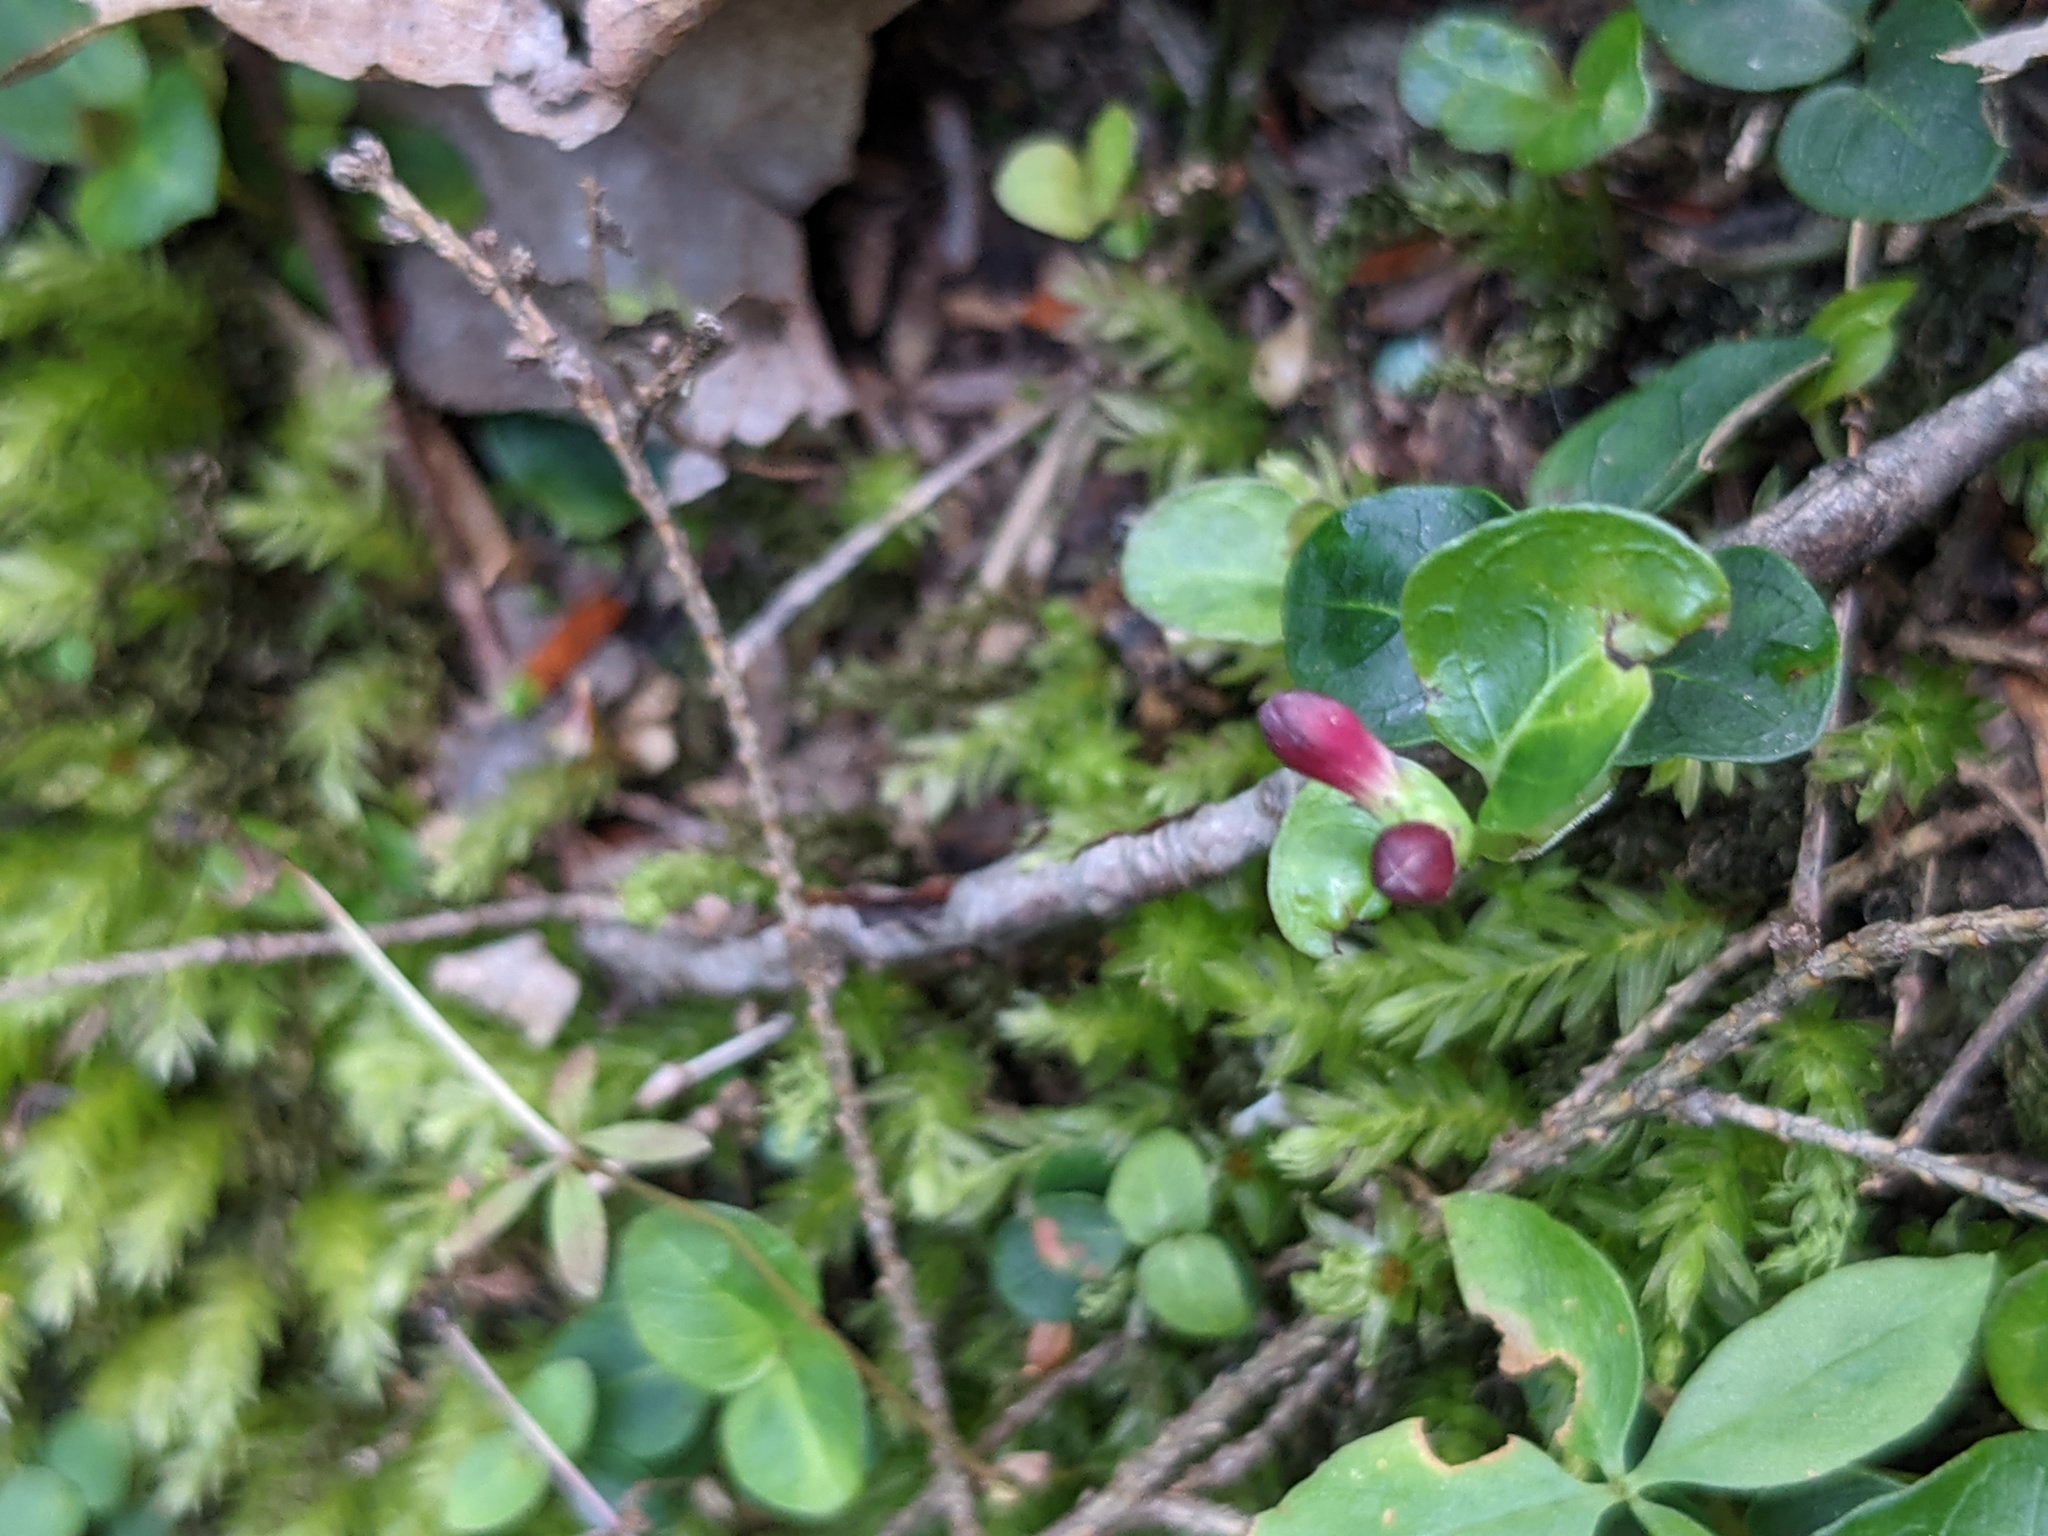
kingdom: Plantae
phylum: Tracheophyta
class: Magnoliopsida
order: Gentianales
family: Rubiaceae
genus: Mitchella
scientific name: Mitchella repens
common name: Partridge-berry
